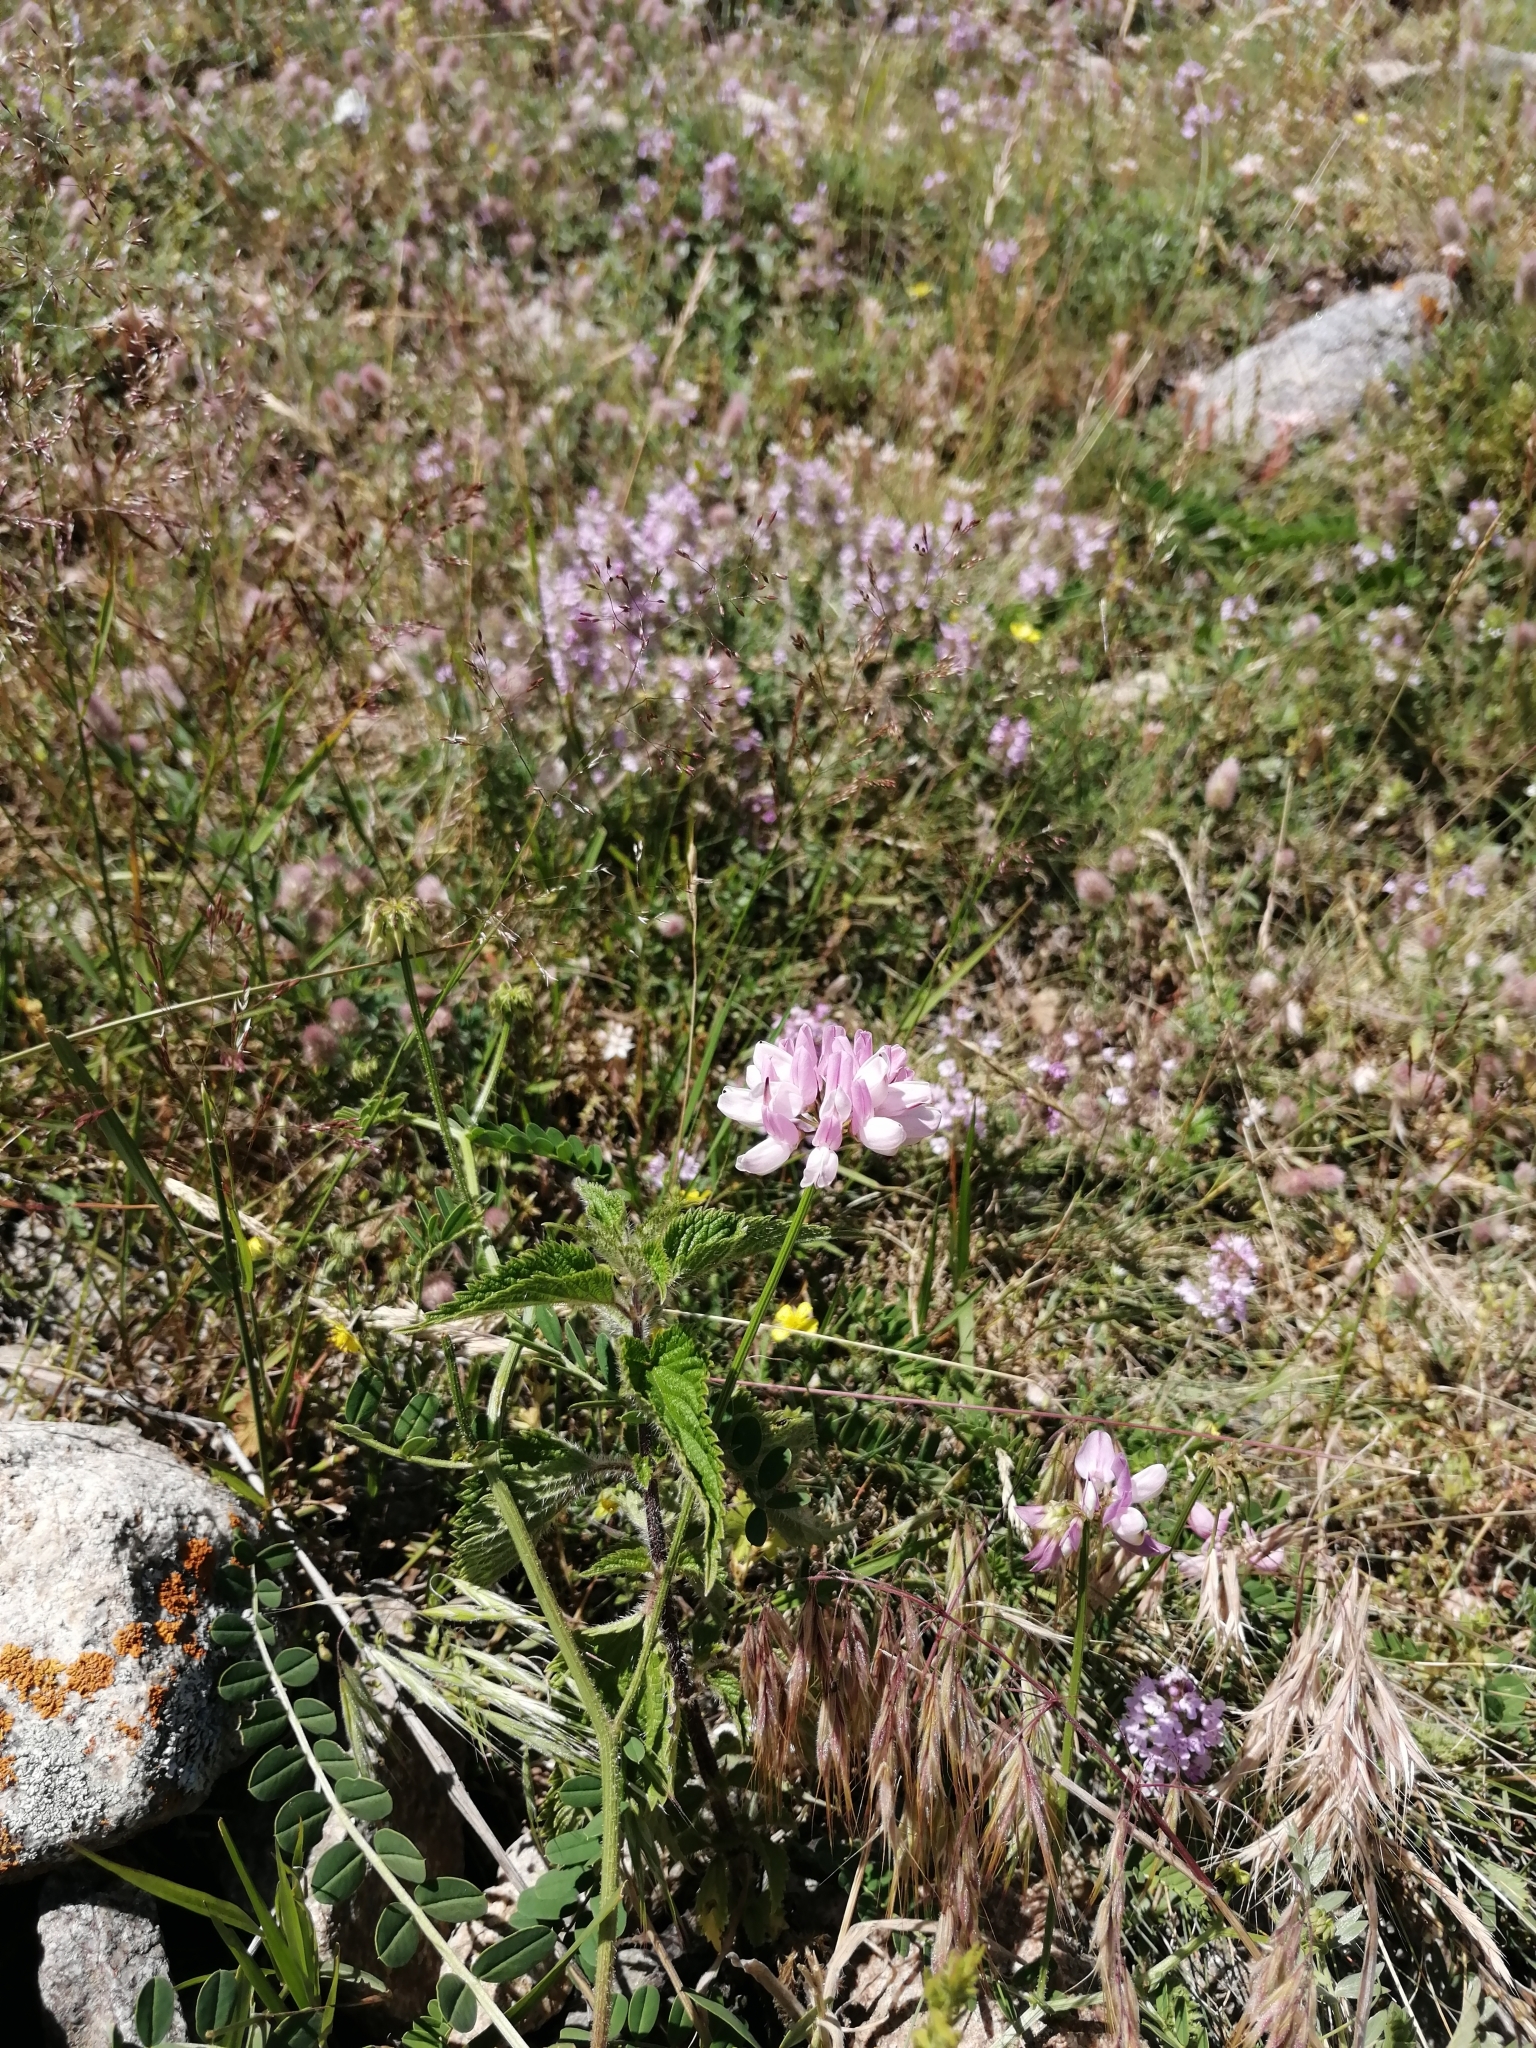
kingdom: Plantae
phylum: Tracheophyta
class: Magnoliopsida
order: Fabales
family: Fabaceae
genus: Coronilla
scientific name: Coronilla varia
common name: Crownvetch
